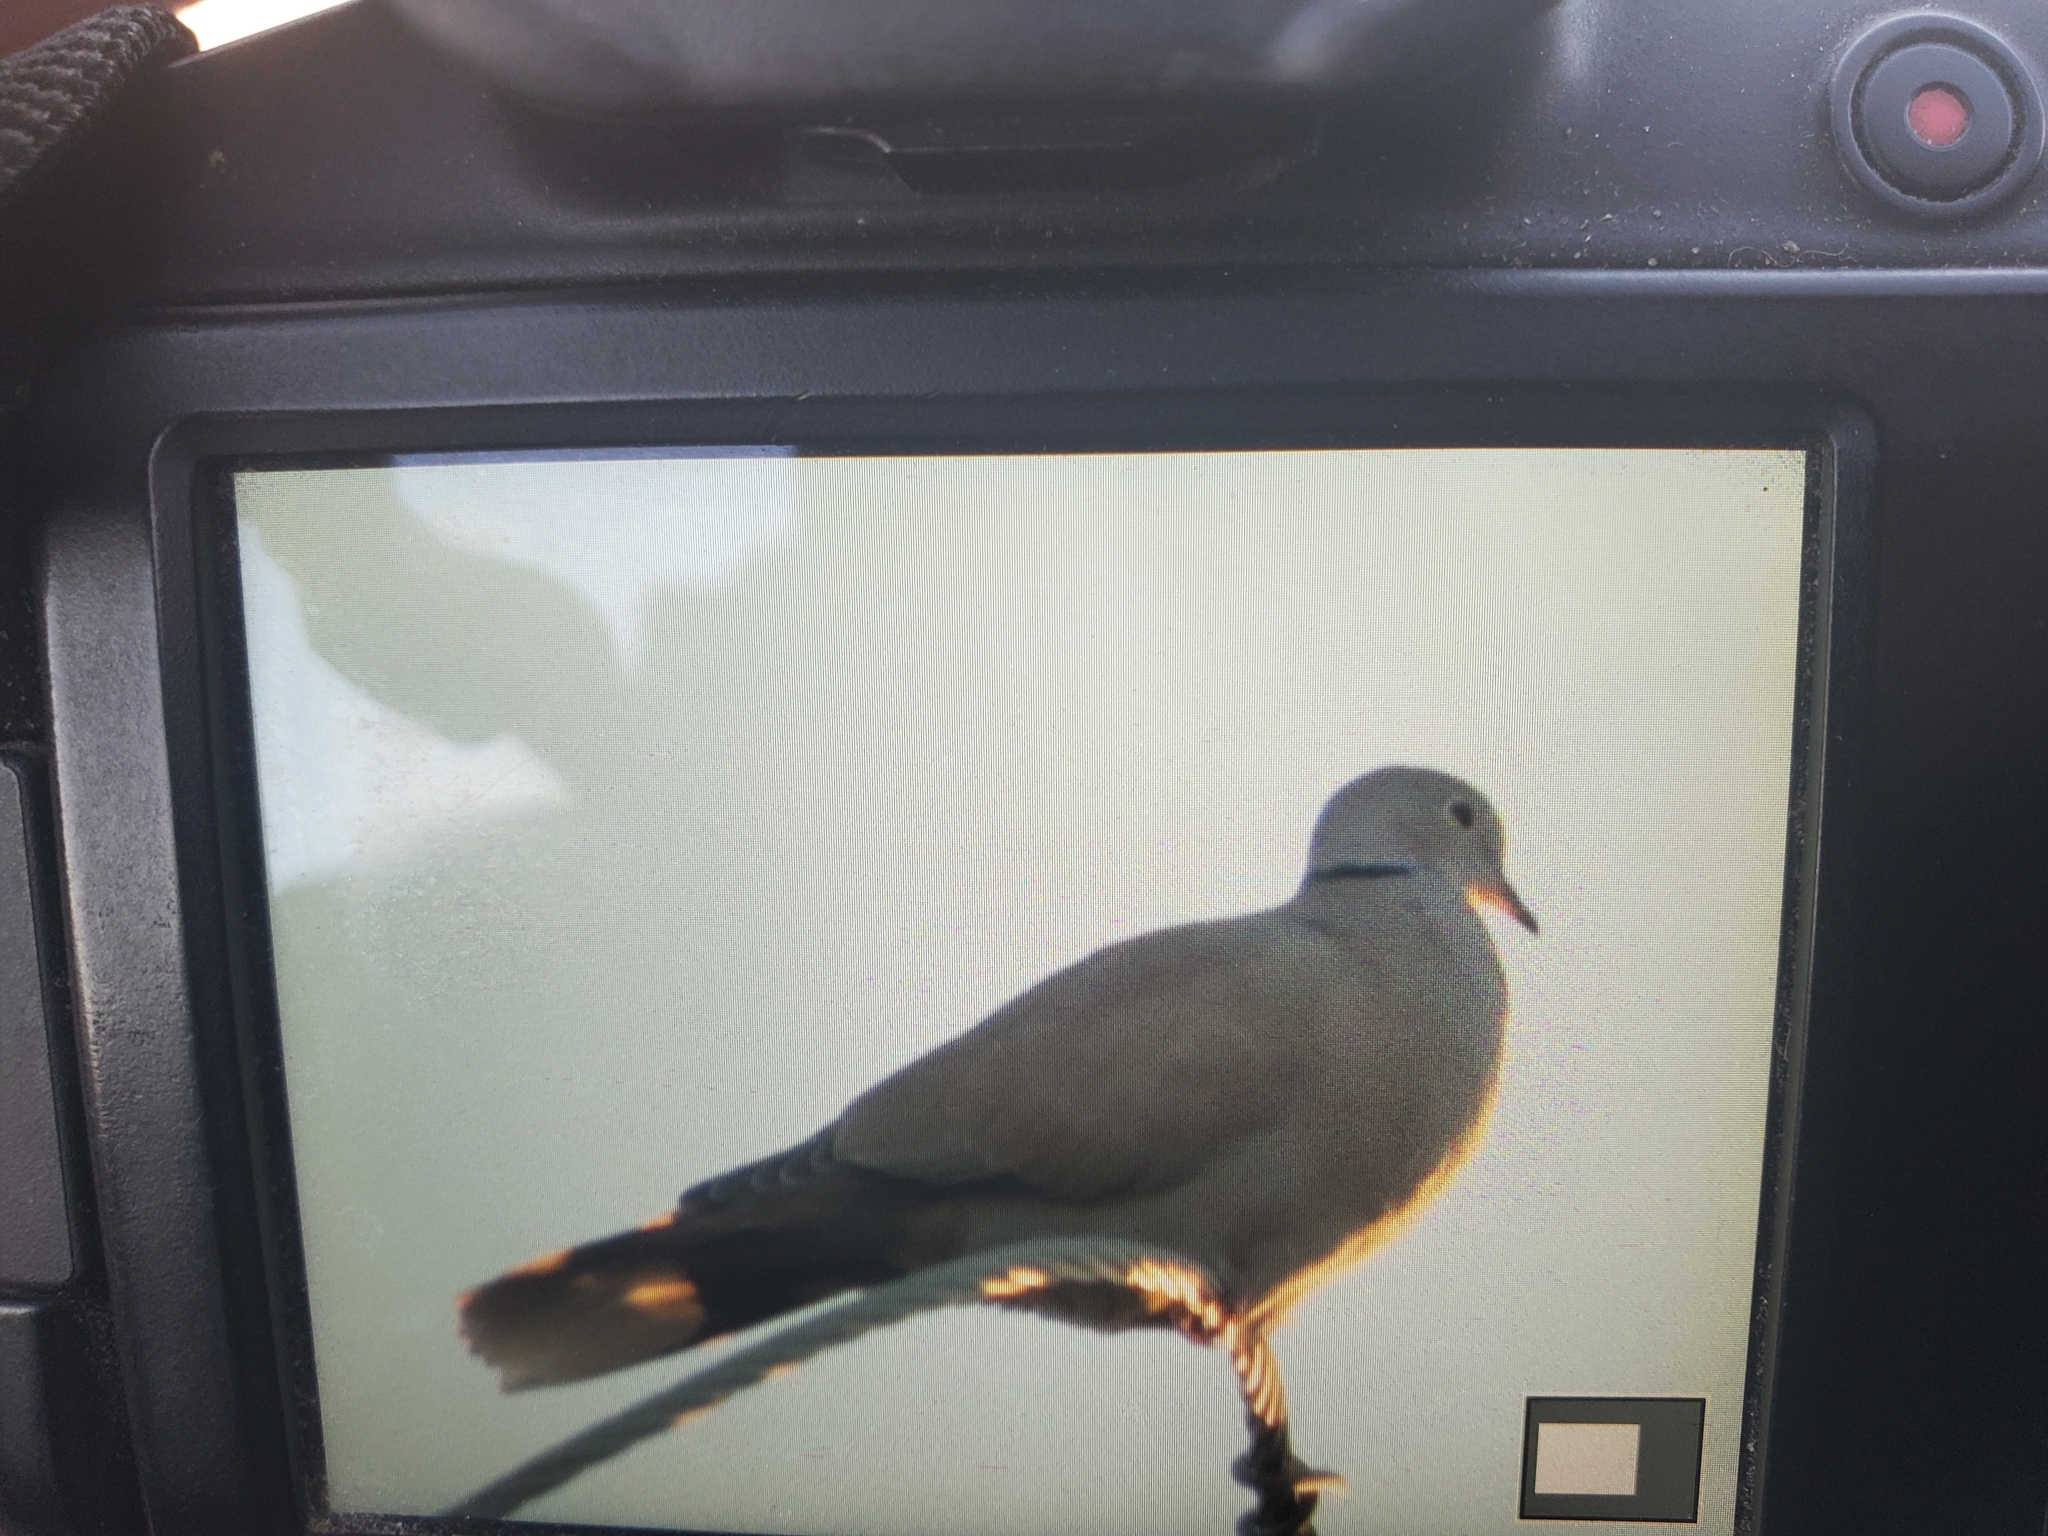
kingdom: Animalia
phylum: Chordata
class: Aves
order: Columbiformes
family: Columbidae
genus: Streptopelia
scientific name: Streptopelia decaocto
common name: Eurasian collared dove
